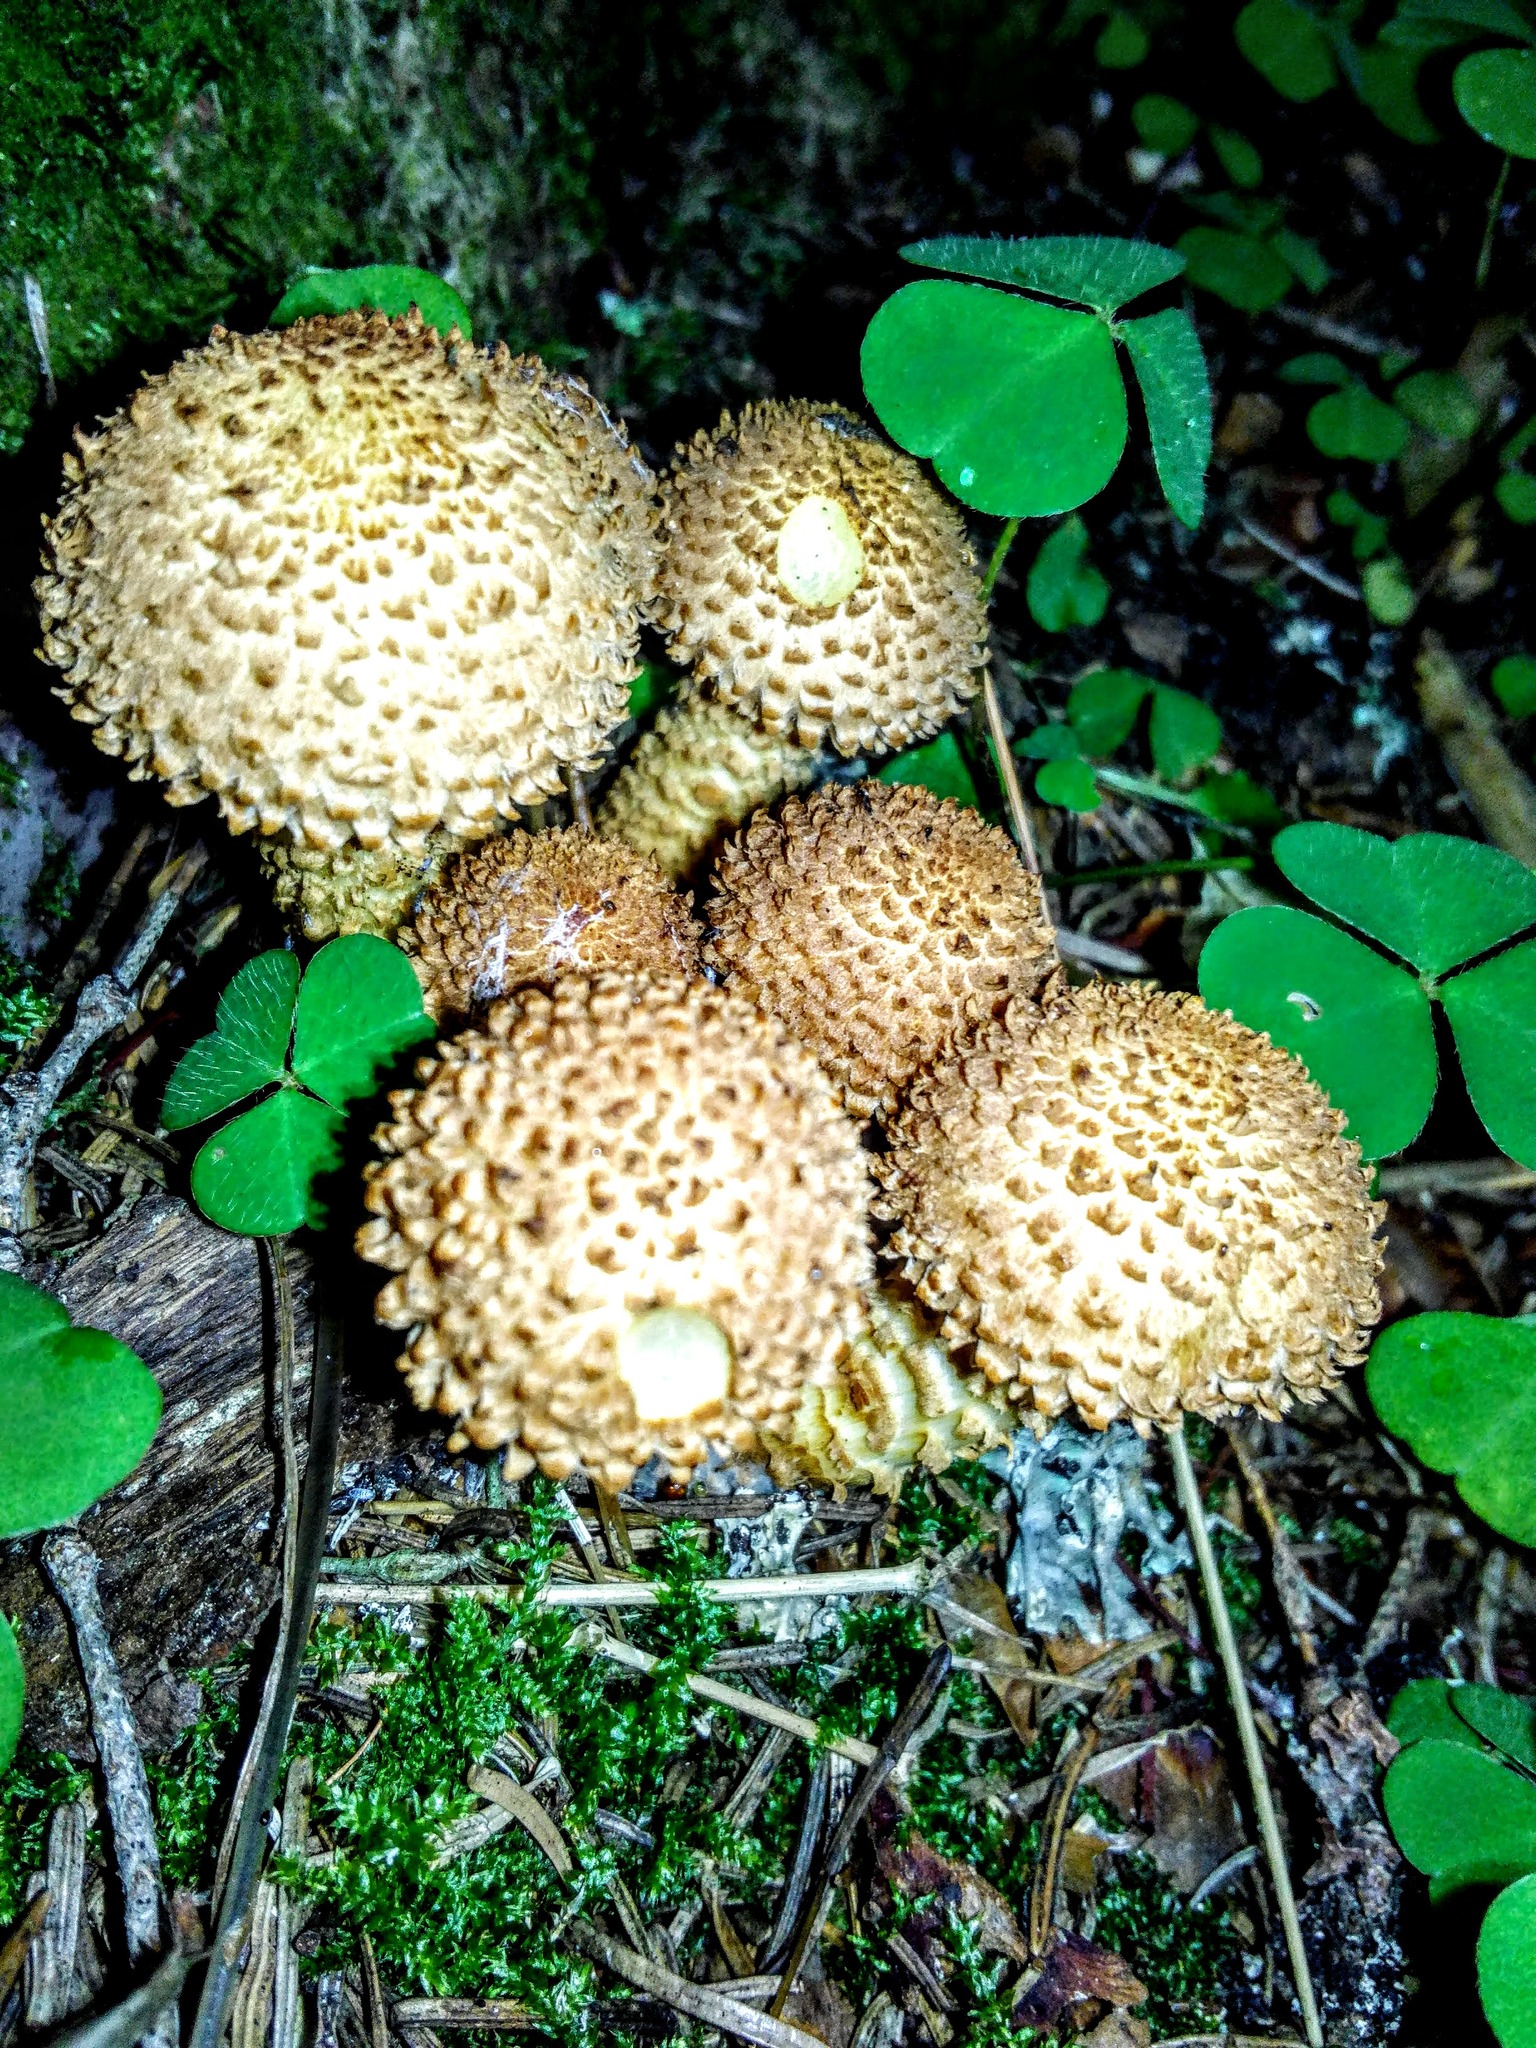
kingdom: Fungi
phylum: Basidiomycota
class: Agaricomycetes
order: Agaricales
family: Strophariaceae
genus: Pholiota
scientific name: Pholiota squarrosa
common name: Shaggy pholiota
